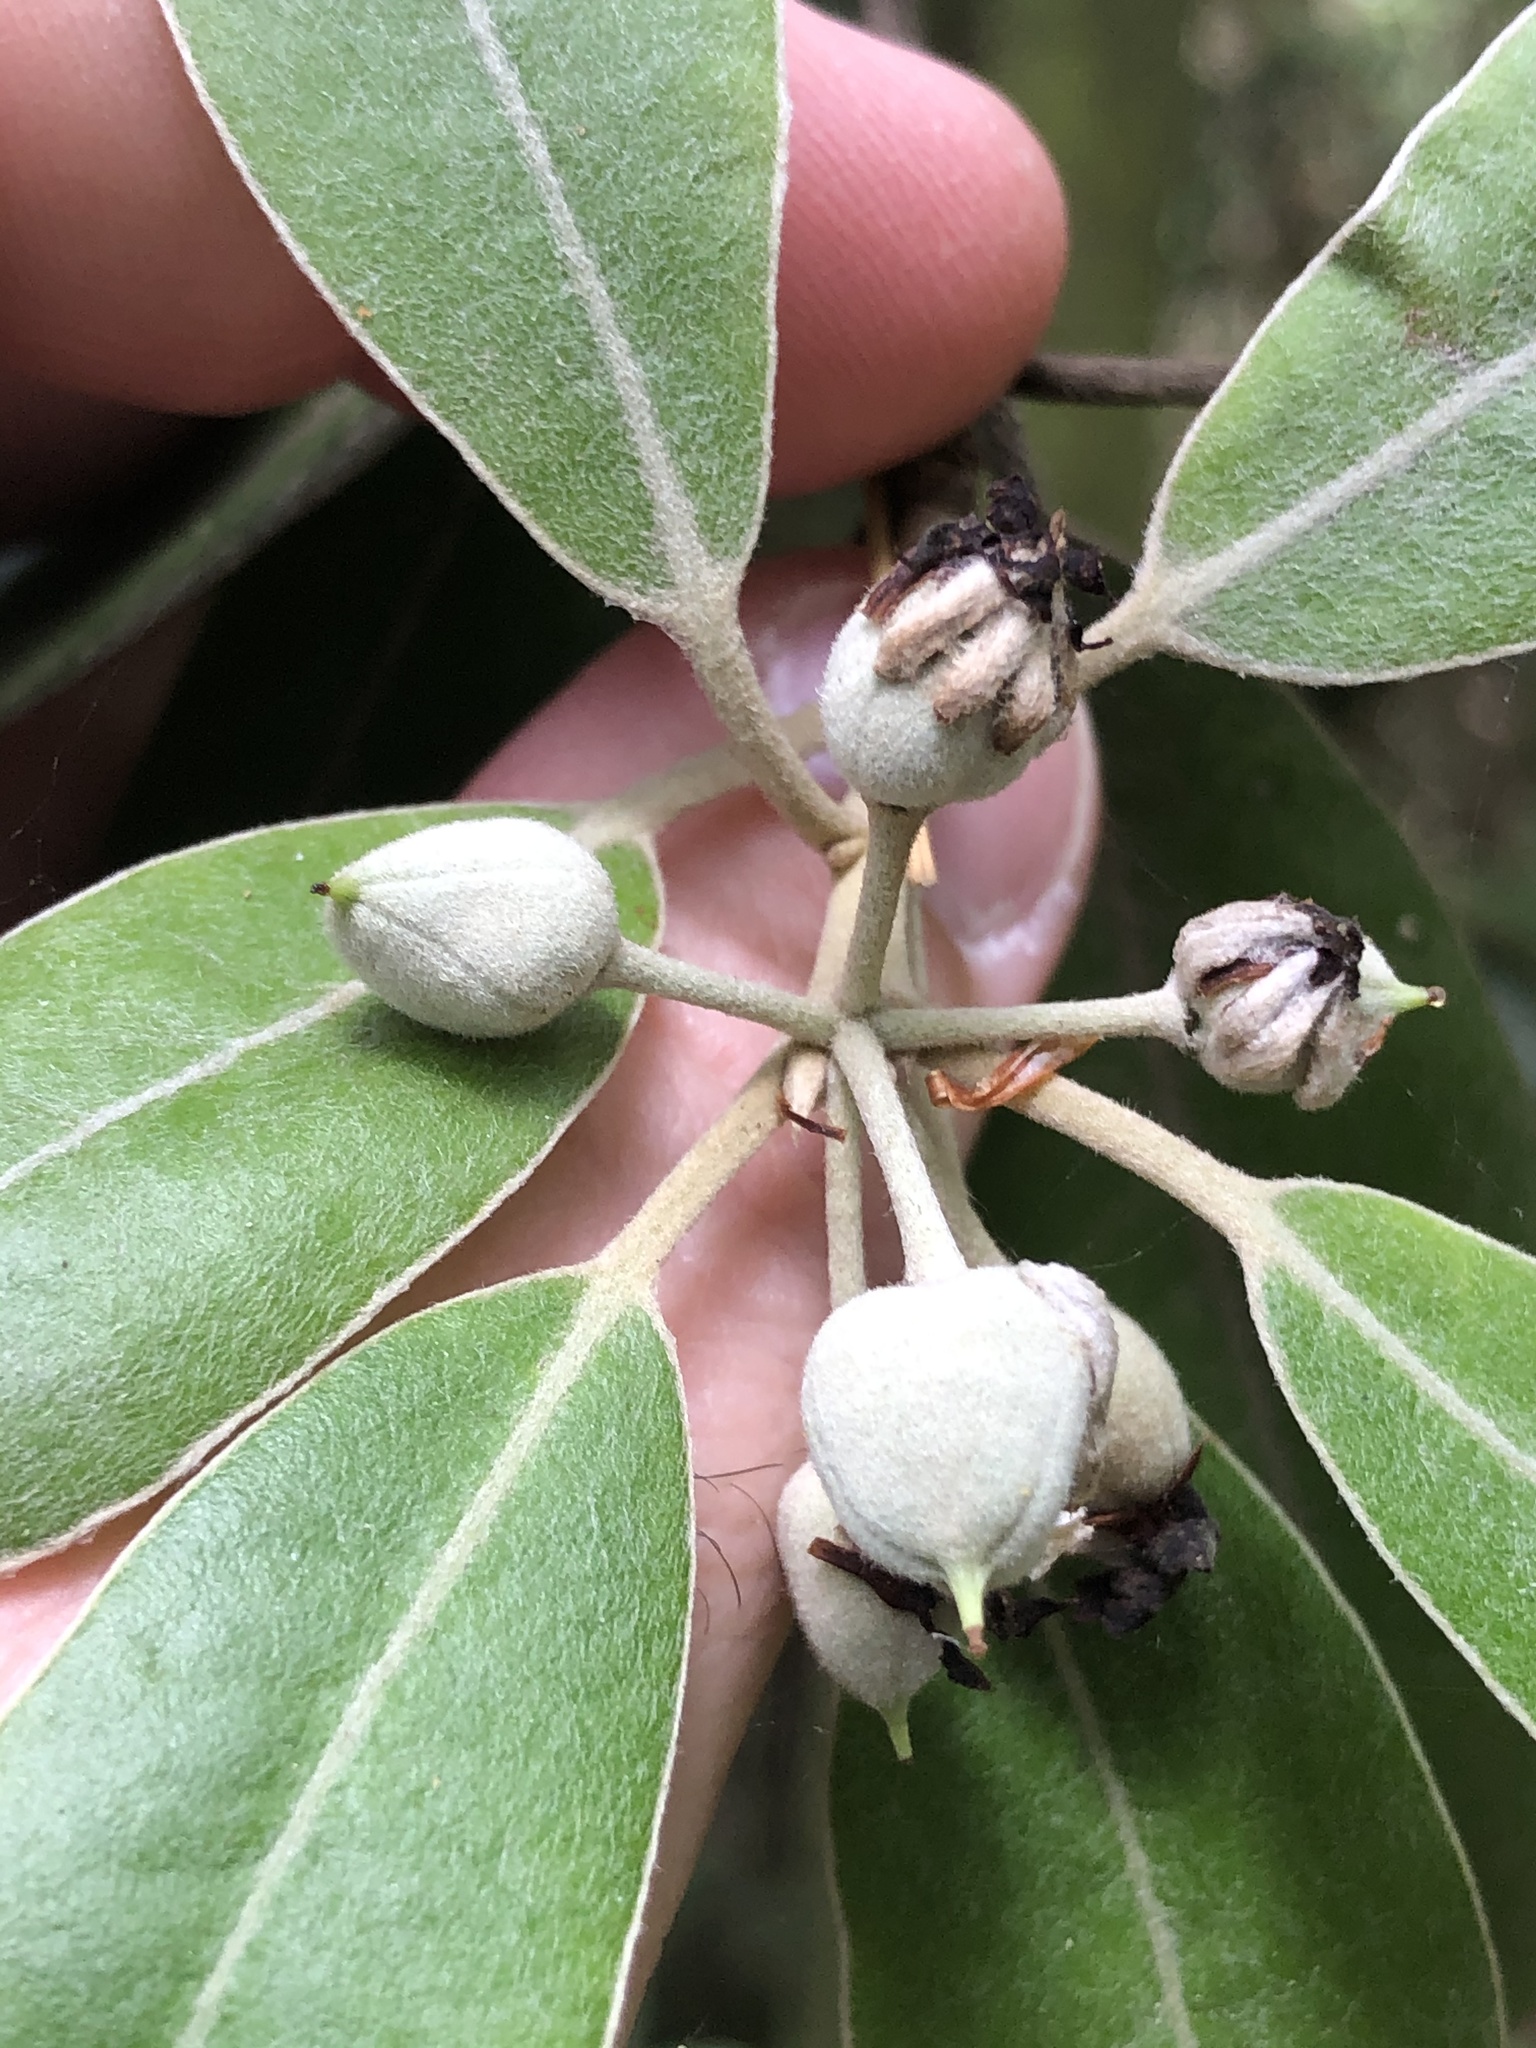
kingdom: Plantae
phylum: Tracheophyta
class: Magnoliopsida
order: Apiales
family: Pittosporaceae
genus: Pittosporum
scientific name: Pittosporum ralphii
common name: Ralph's desertwillow
